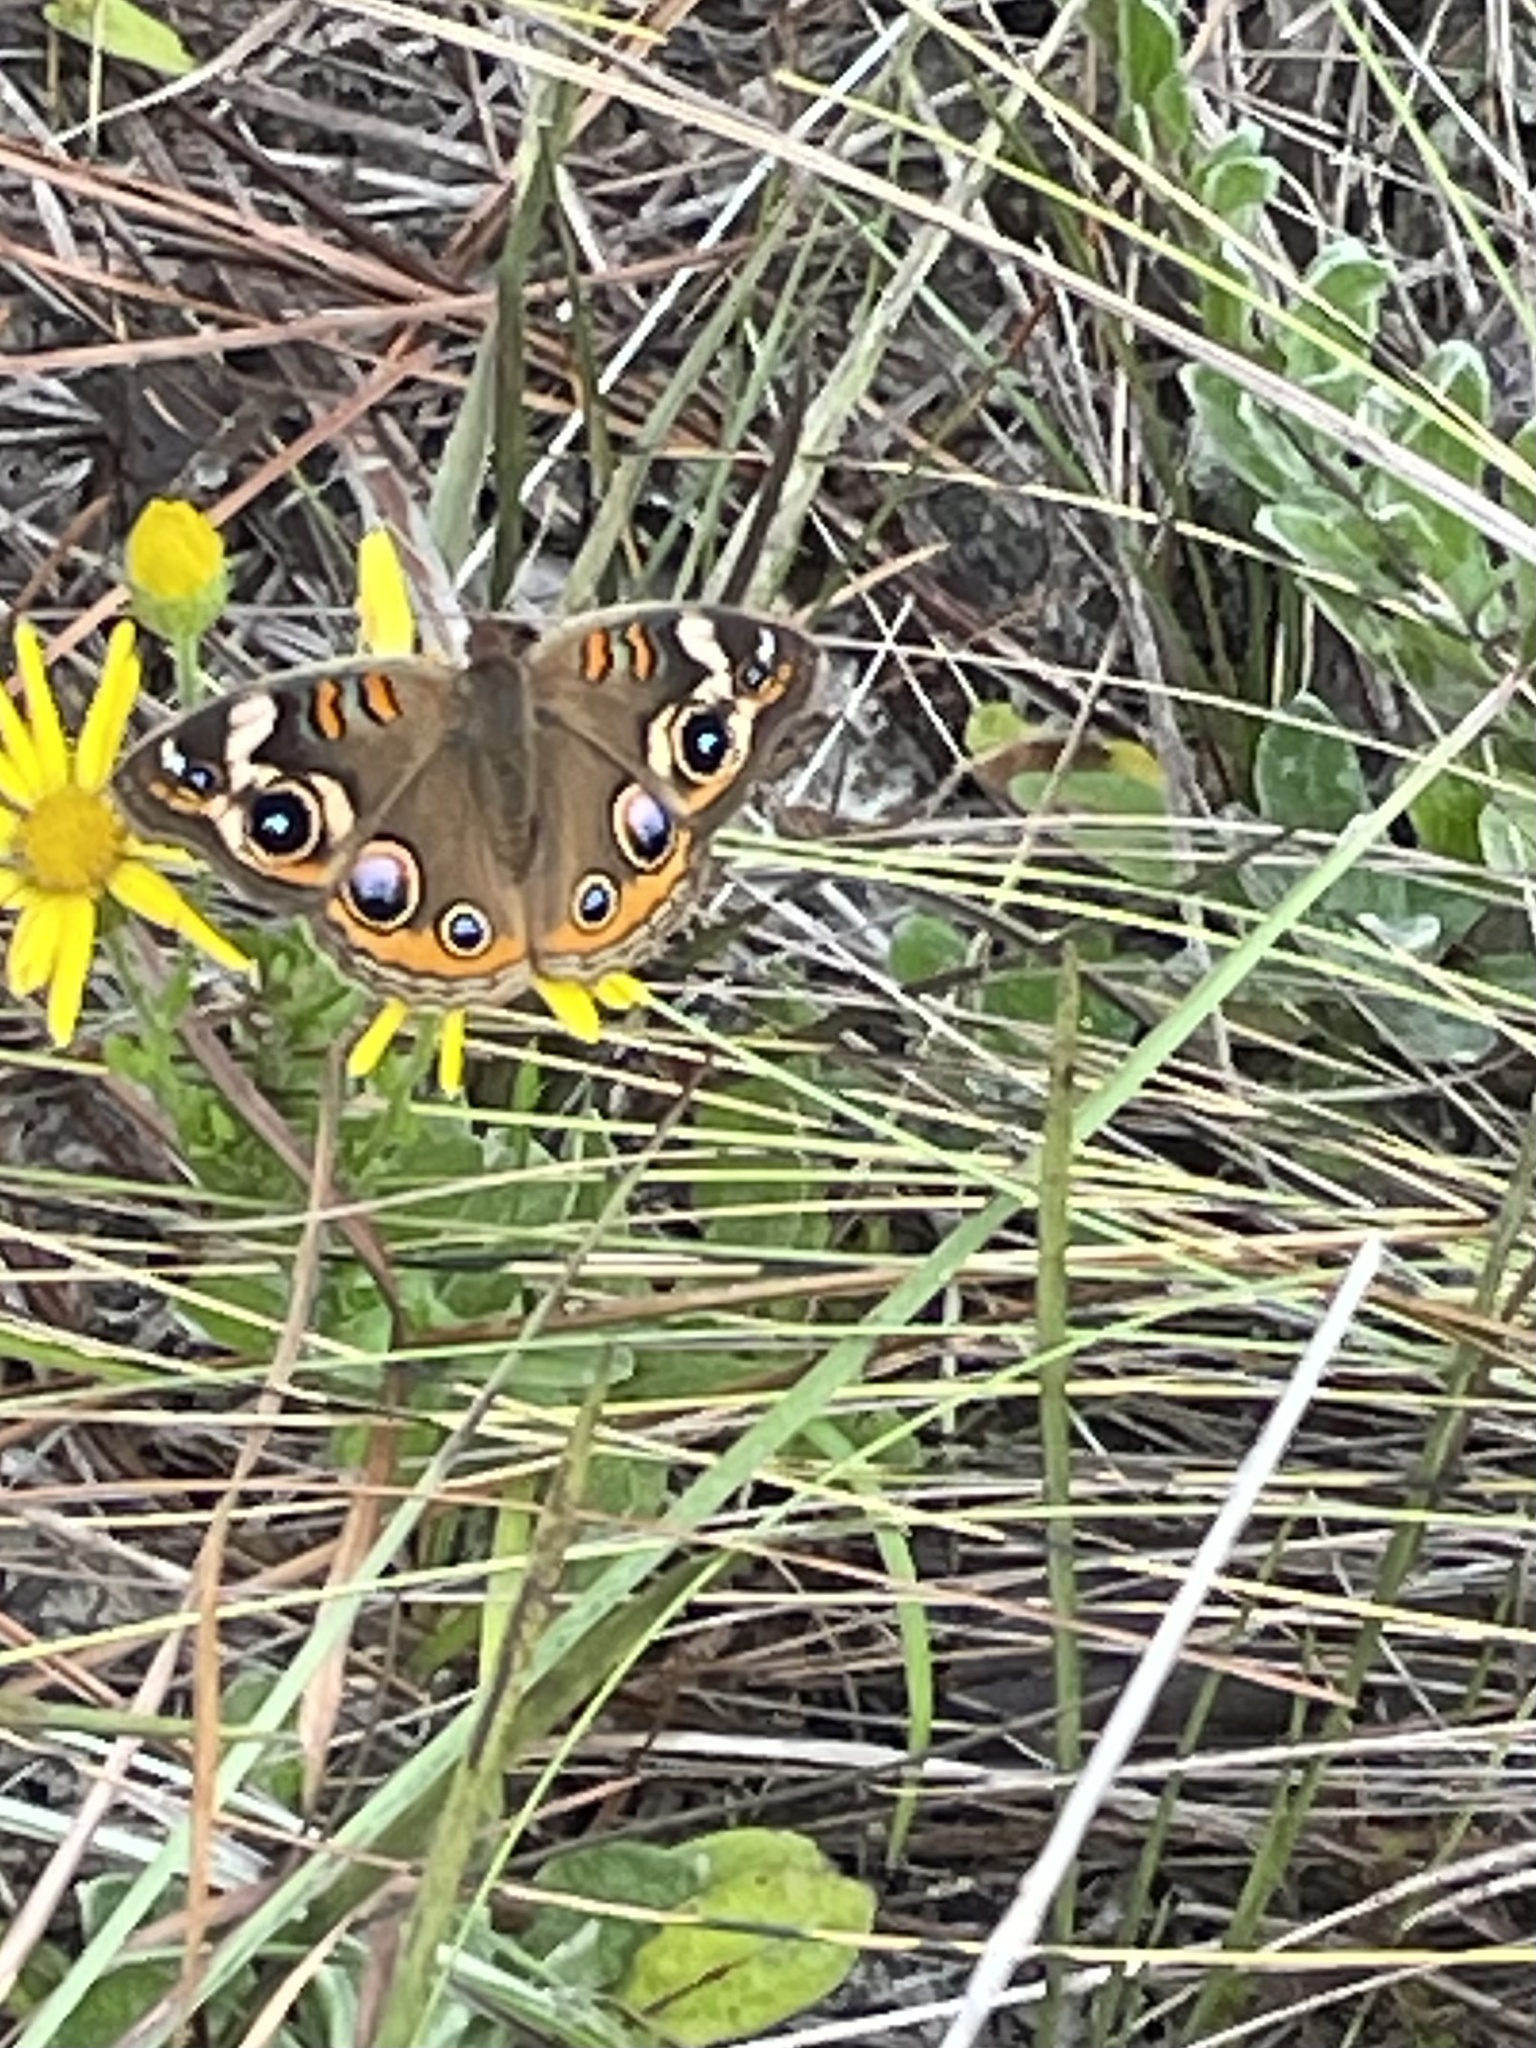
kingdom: Animalia
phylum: Arthropoda
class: Insecta
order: Lepidoptera
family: Nymphalidae
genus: Junonia
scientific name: Junonia coenia
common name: Common buckeye
